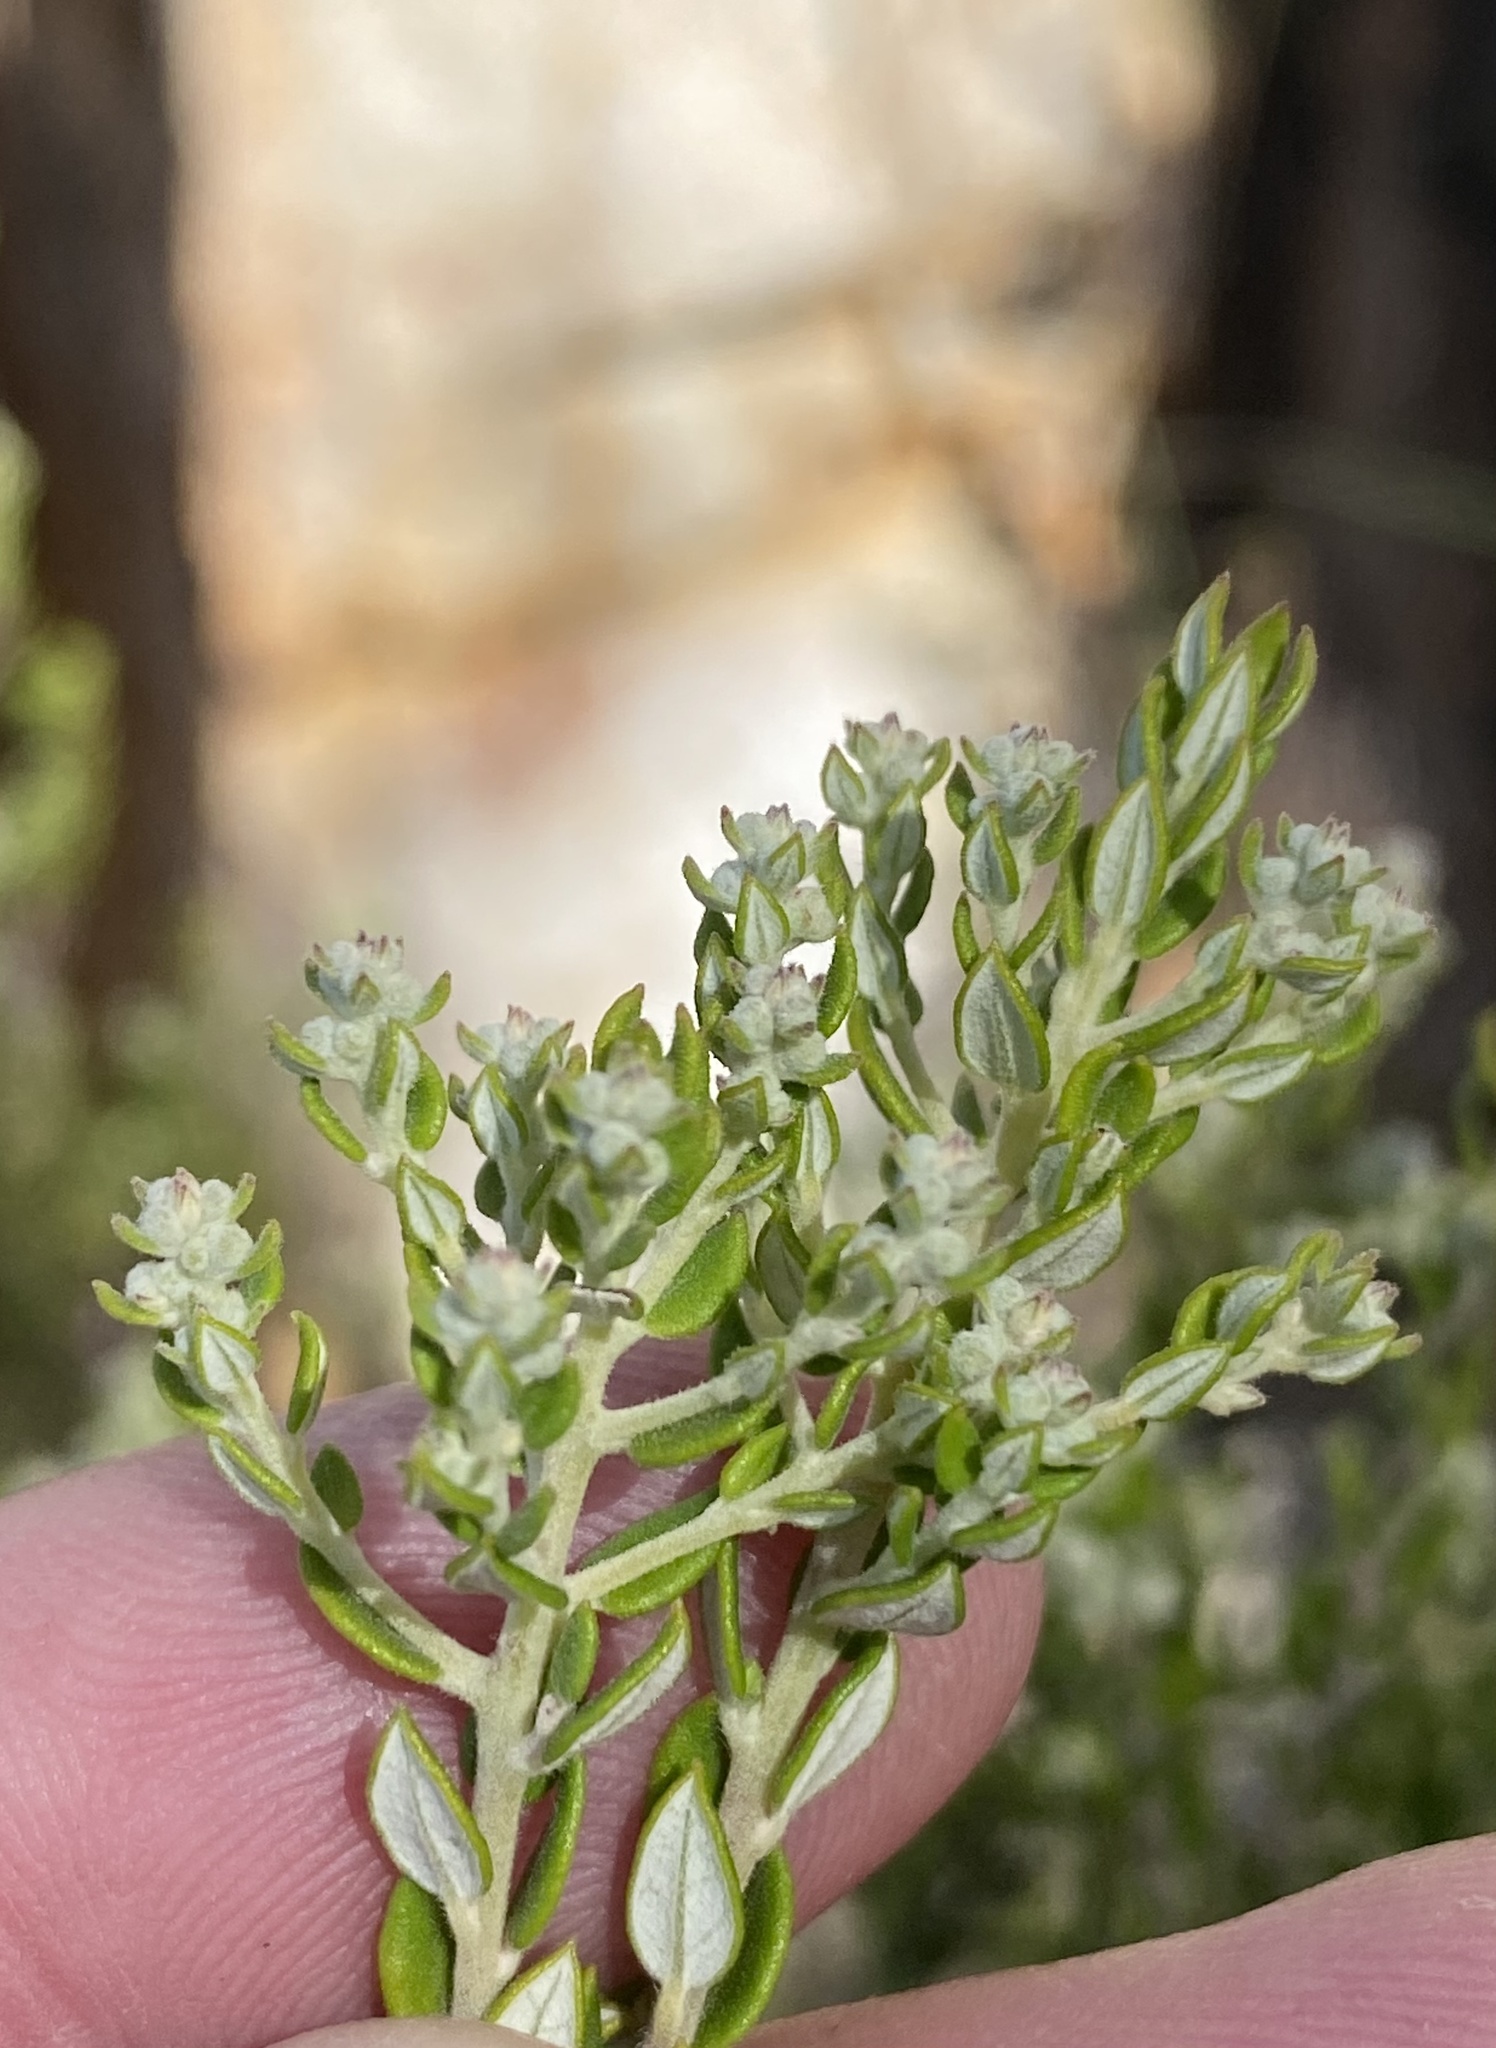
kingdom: Plantae
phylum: Tracheophyta
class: Magnoliopsida
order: Rosales
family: Rhamnaceae
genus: Phylica
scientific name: Phylica paniculata
